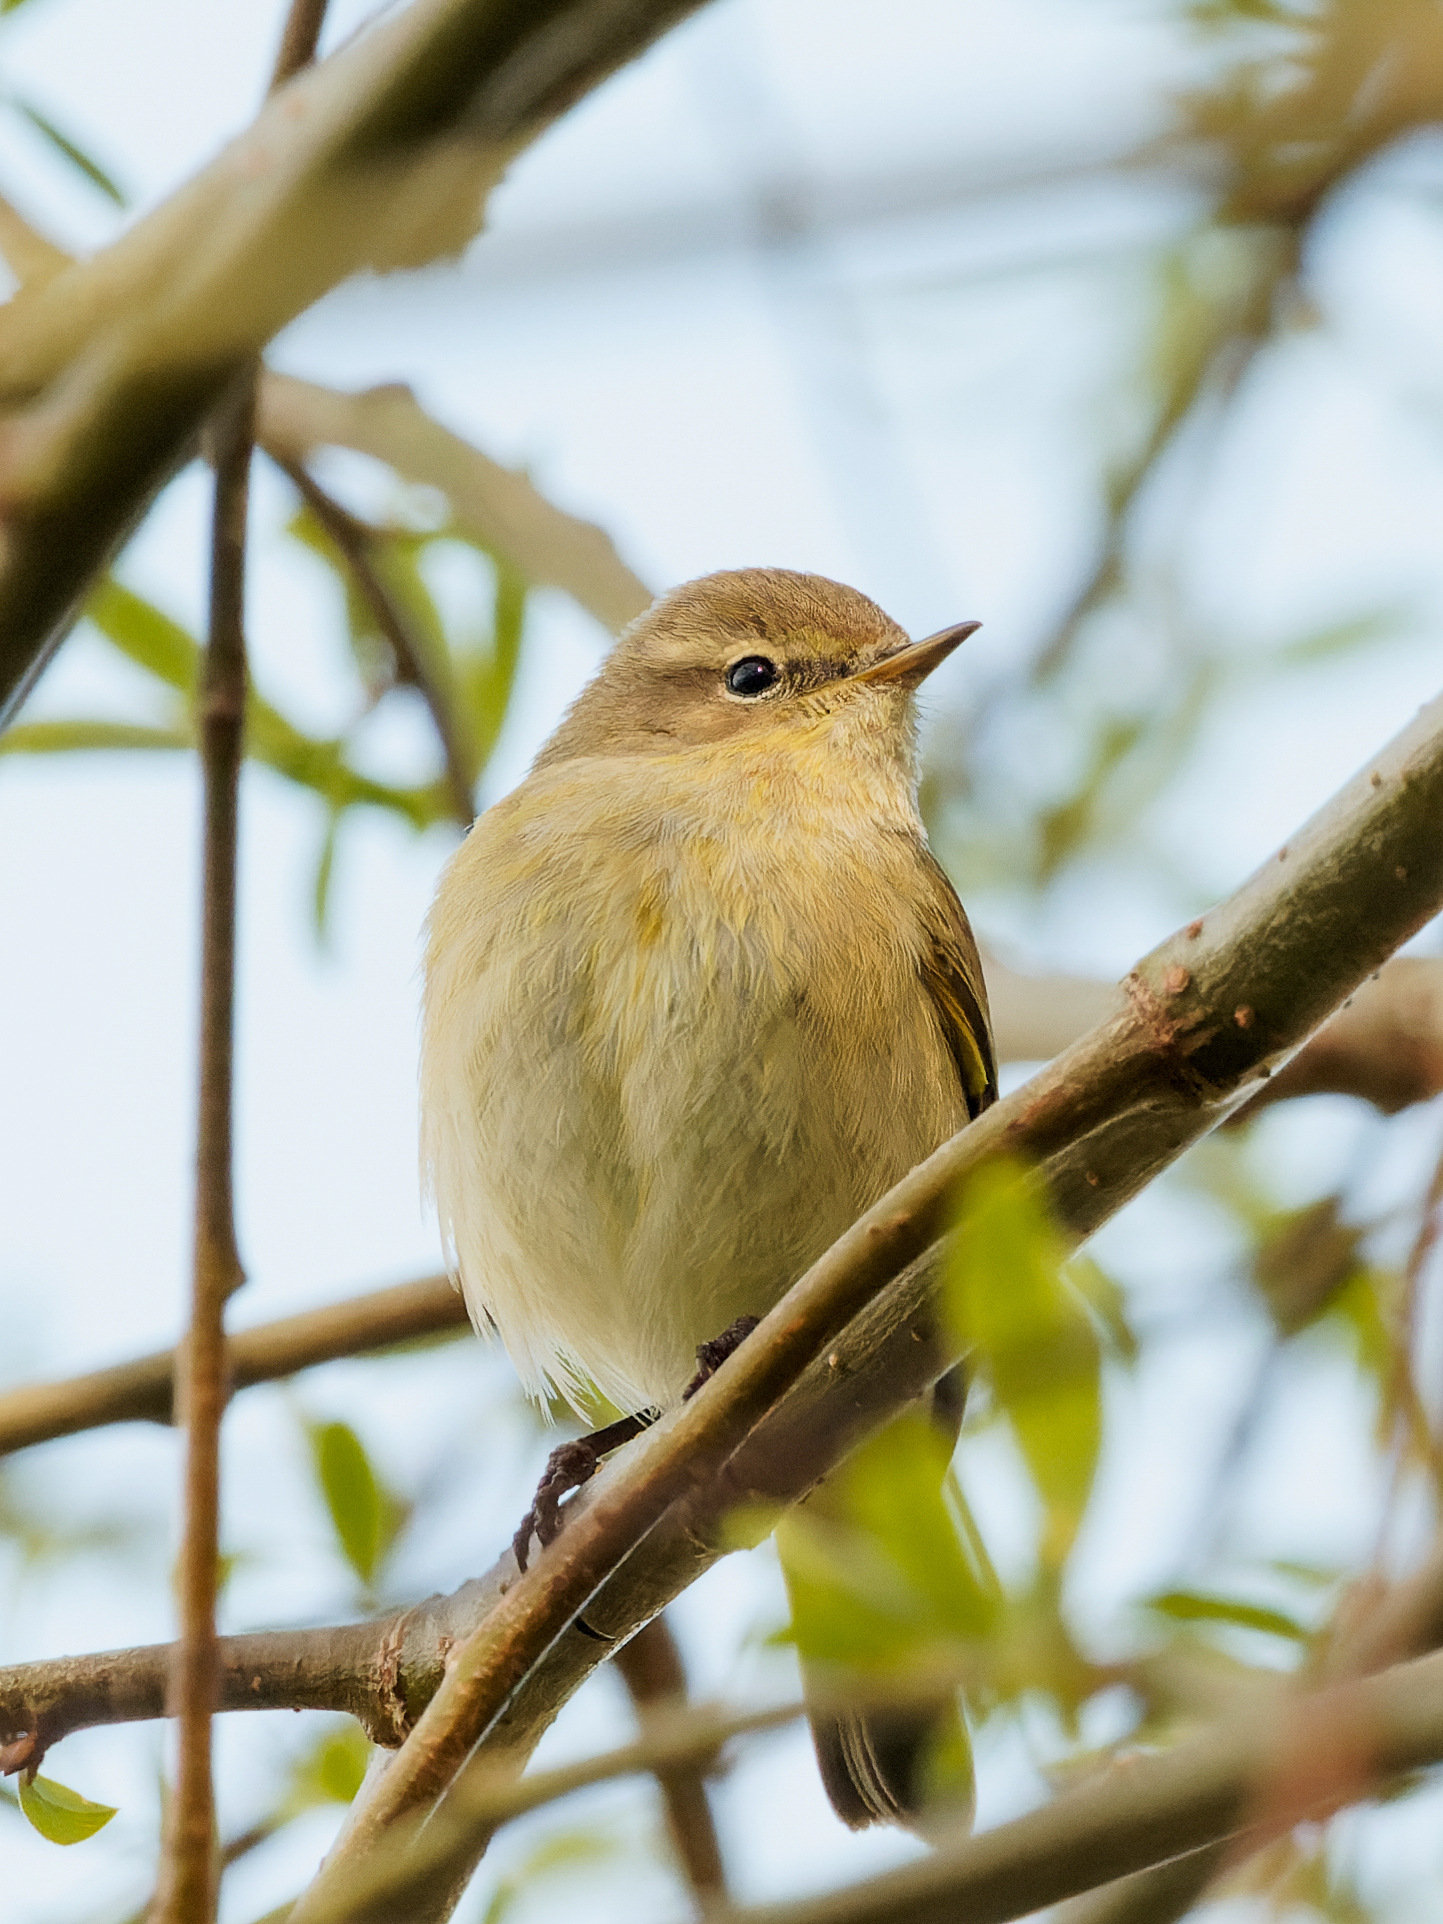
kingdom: Animalia
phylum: Chordata
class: Aves
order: Passeriformes
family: Phylloscopidae
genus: Phylloscopus
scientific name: Phylloscopus collybita
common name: Common chiffchaff
